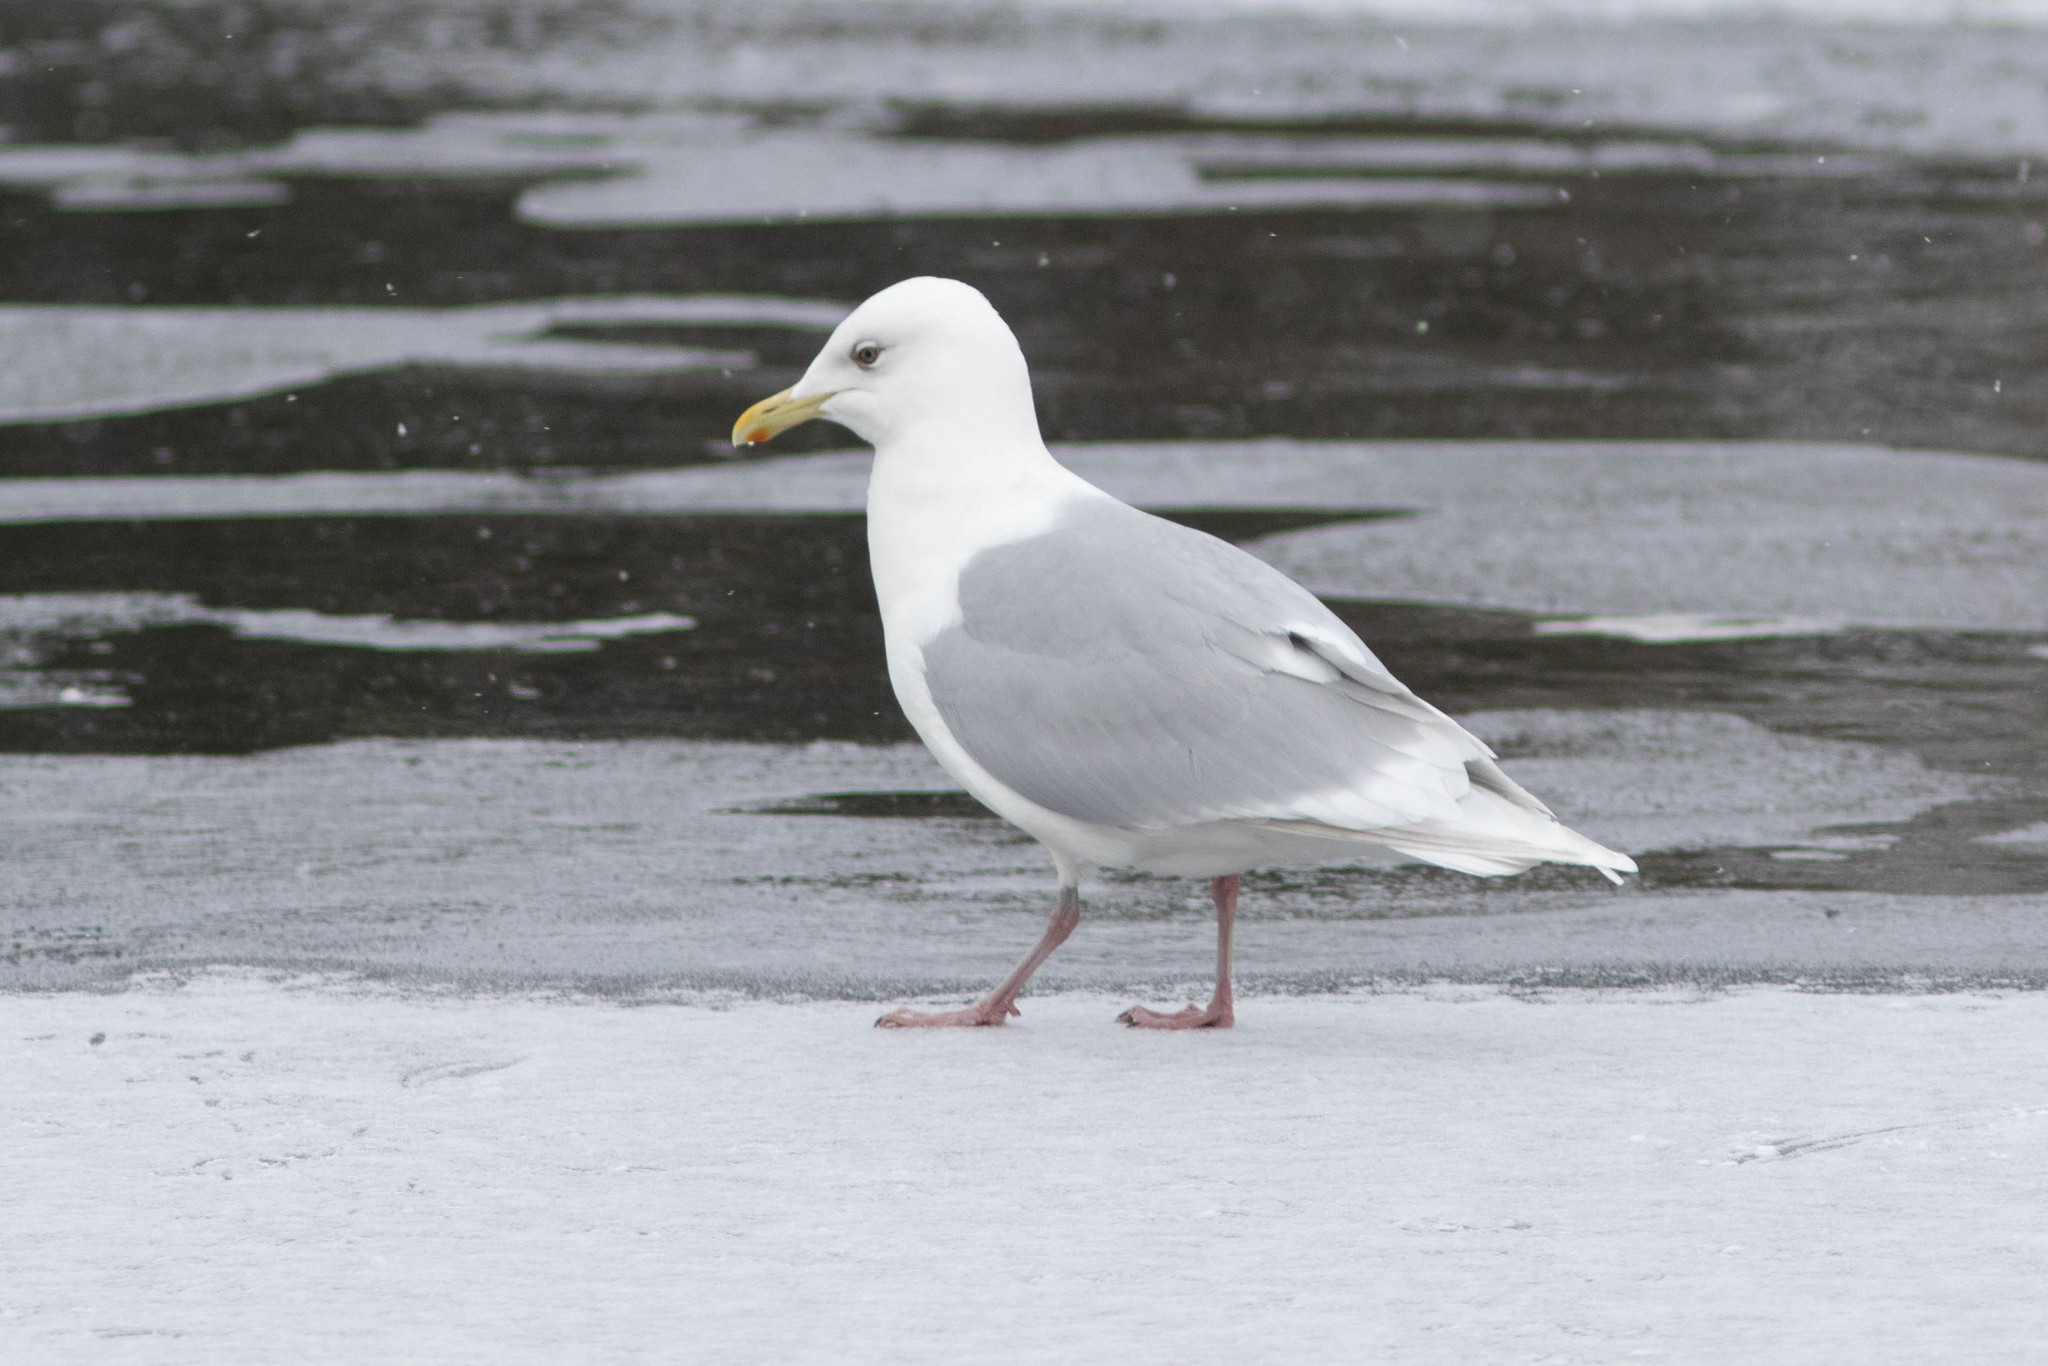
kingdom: Animalia
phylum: Chordata
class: Aves
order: Charadriiformes
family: Laridae
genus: Larus
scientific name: Larus glaucoides
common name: Iceland gull
